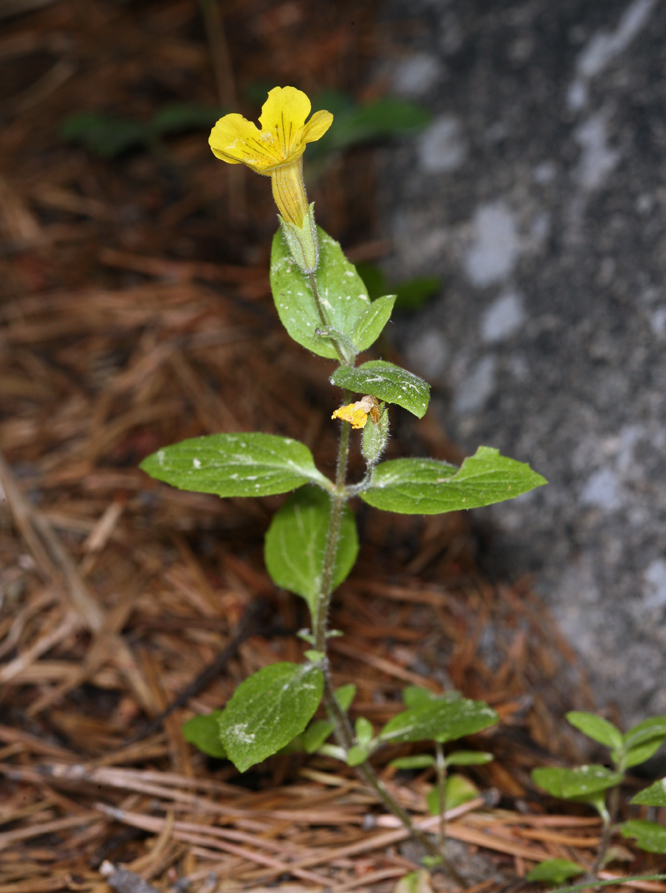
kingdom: Plantae
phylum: Tracheophyta
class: Magnoliopsida
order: Lamiales
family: Phrymaceae
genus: Erythranthe
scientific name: Erythranthe moschata
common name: Muskflower
